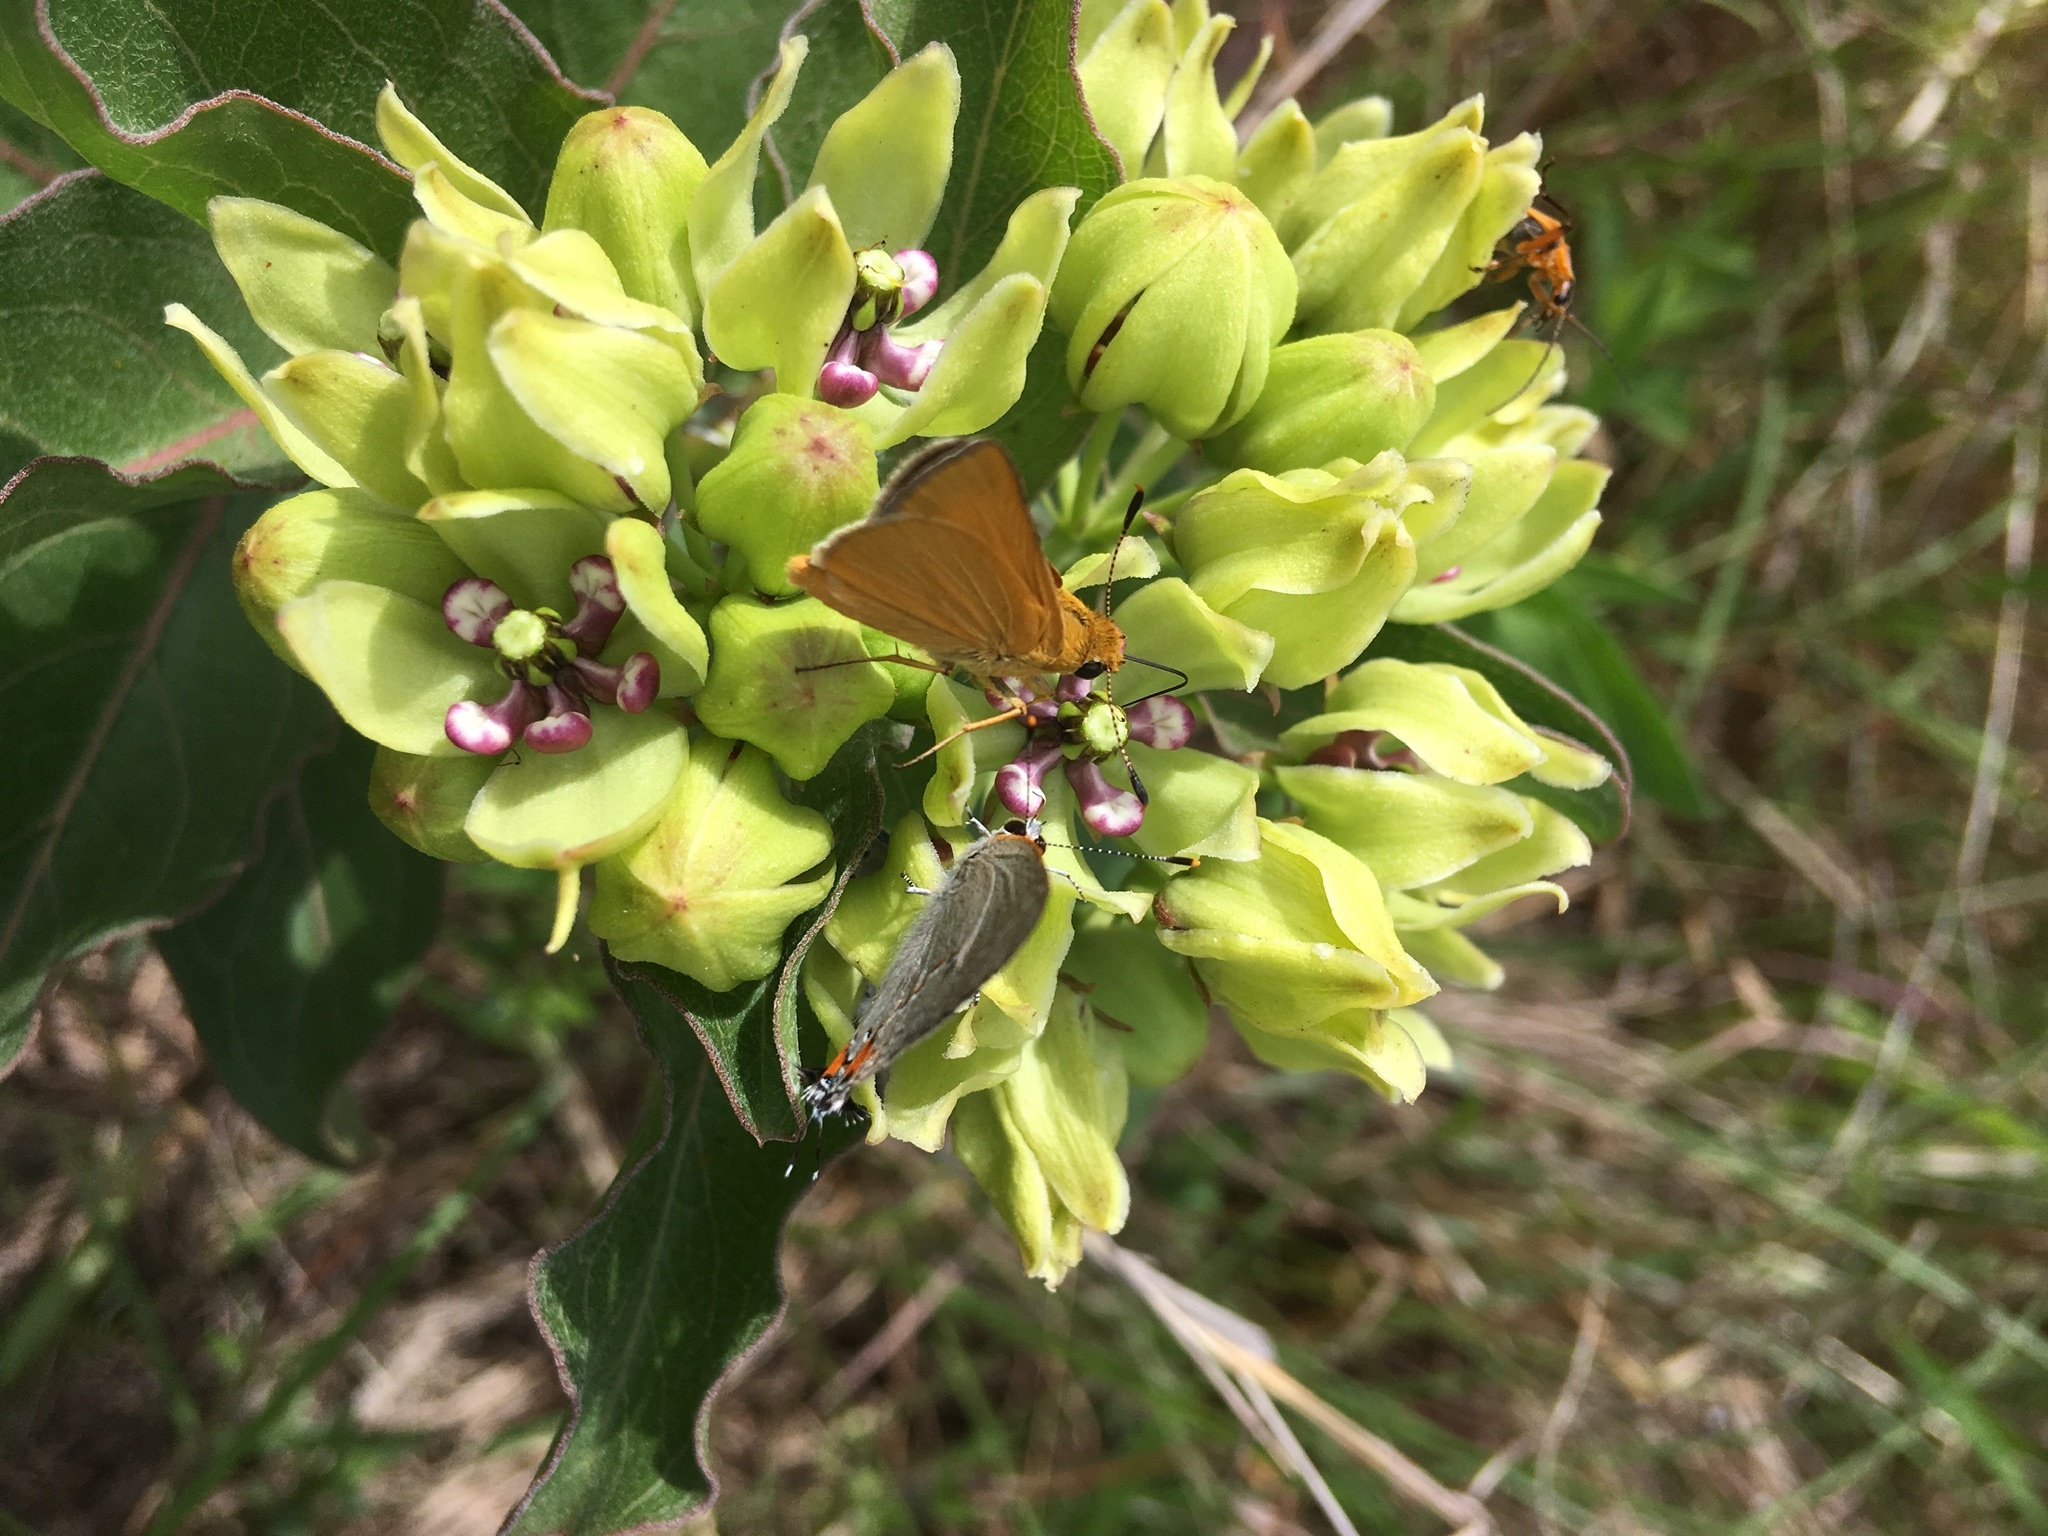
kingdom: Animalia
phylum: Arthropoda
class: Insecta
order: Lepidoptera
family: Hesperiidae
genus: Atrytone
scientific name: Atrytone arogos
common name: Arogos skipper
